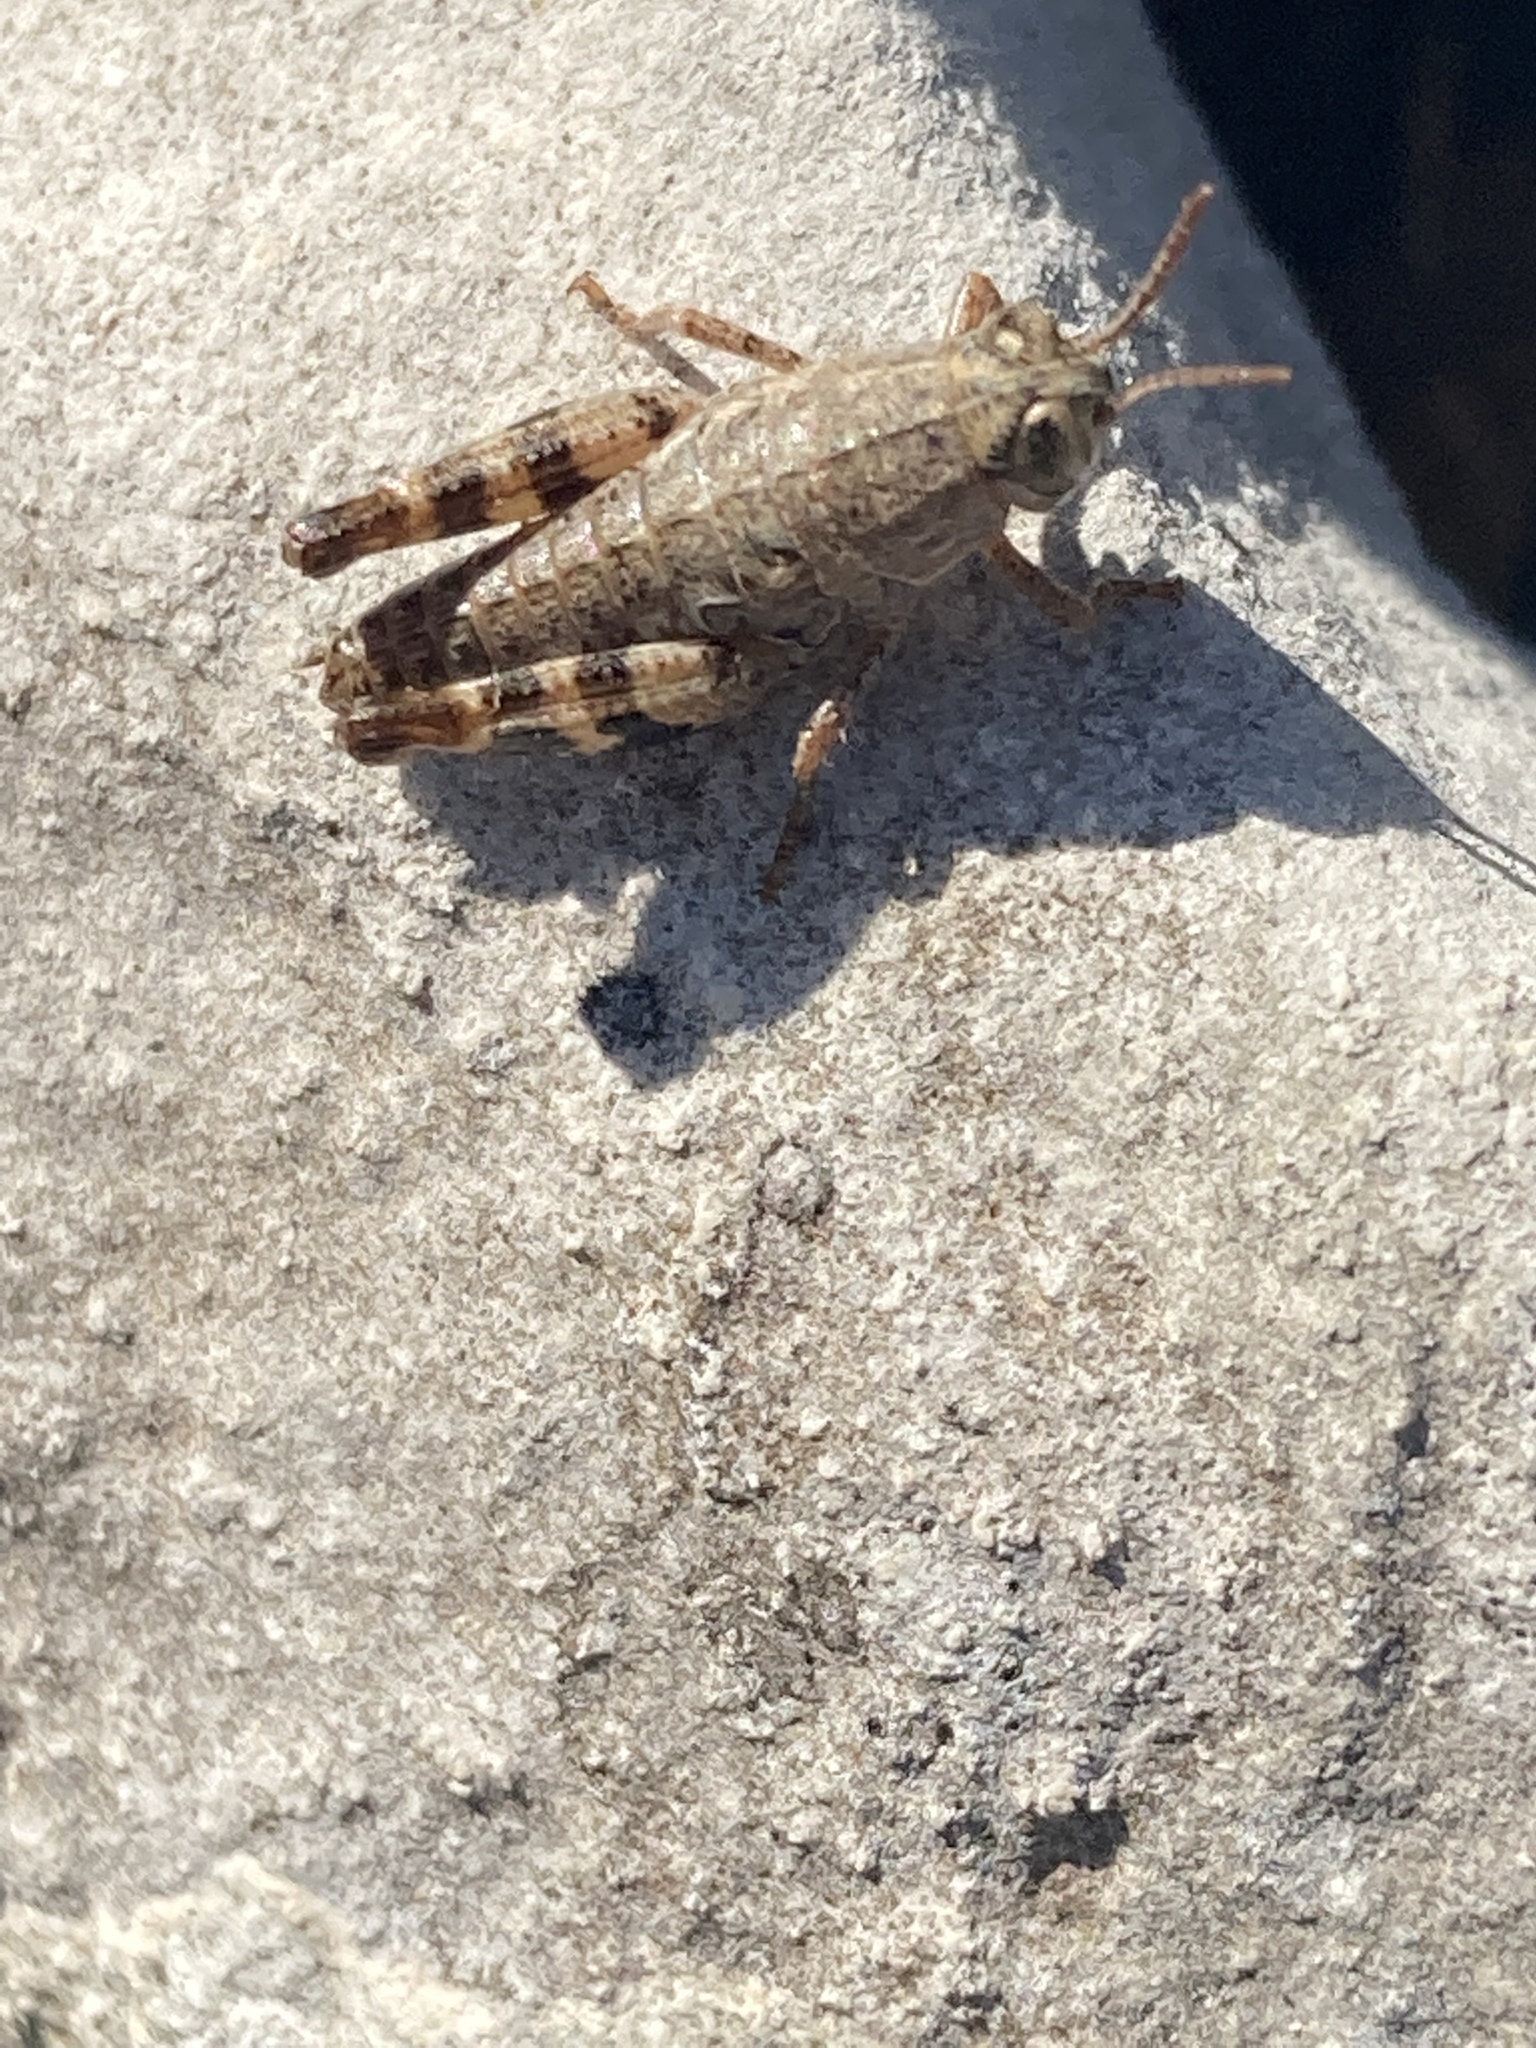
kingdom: Animalia
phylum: Arthropoda
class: Insecta
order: Orthoptera
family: Acrididae
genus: Calliptamus
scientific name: Calliptamus
